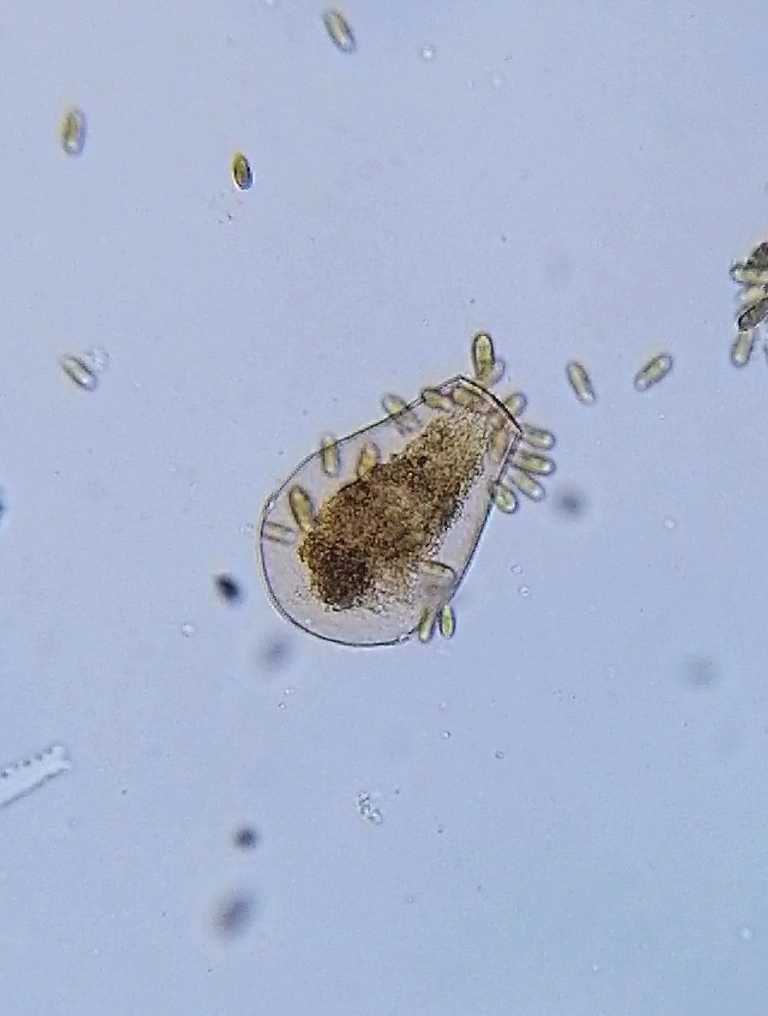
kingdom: Protozoa
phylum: Amoebozoa
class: Lobosa
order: Arcellinida
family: Hyalospheniidae
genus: Hyalosphenia
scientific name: Hyalosphenia papilio
